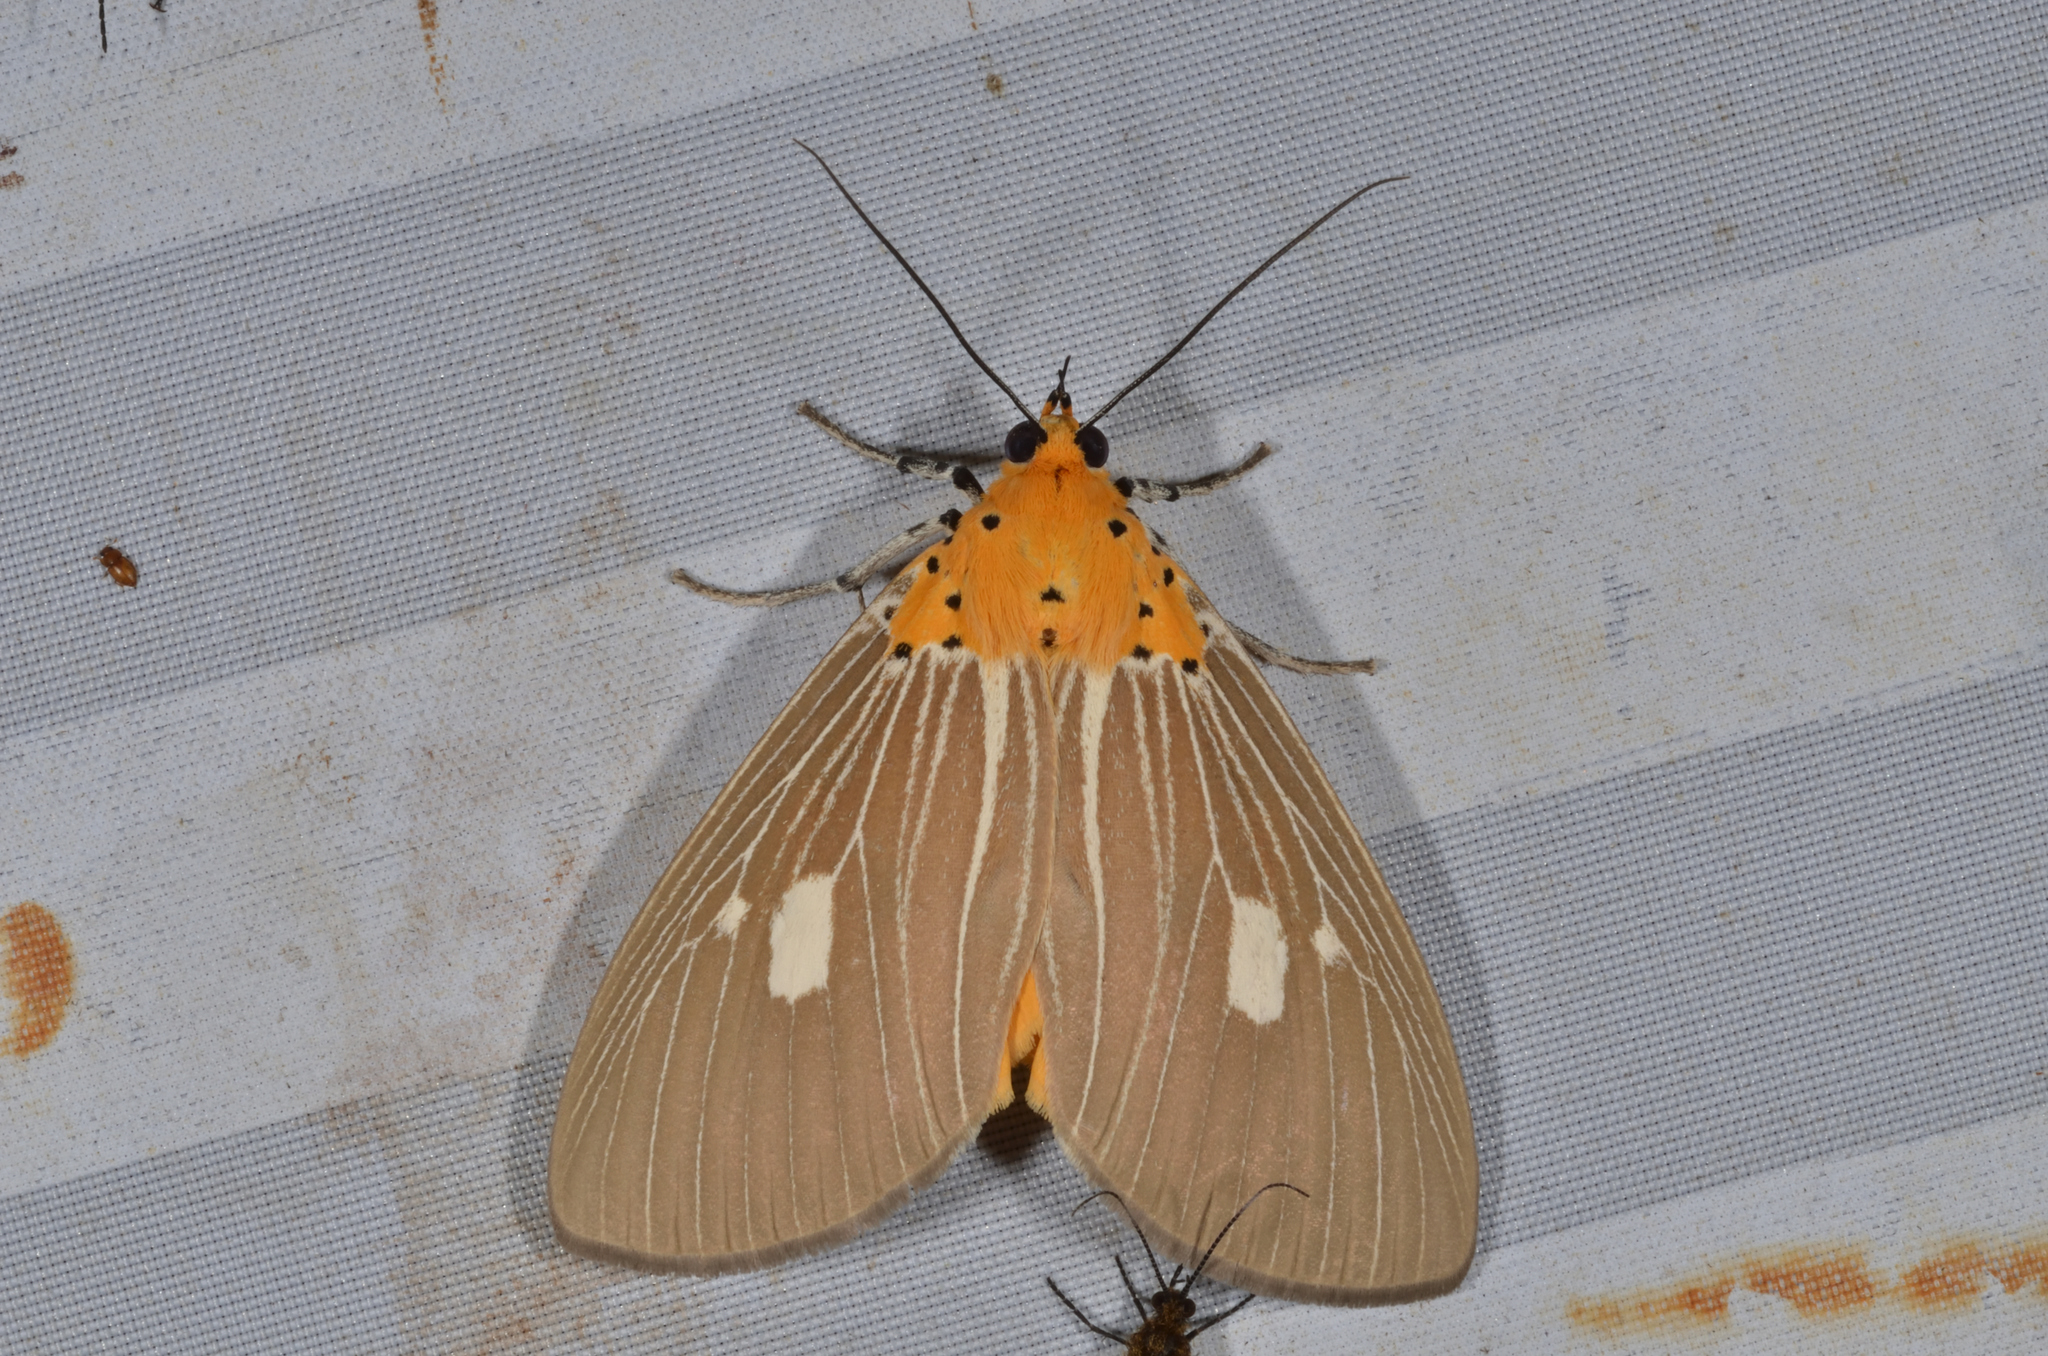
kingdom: Animalia
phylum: Arthropoda
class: Insecta
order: Lepidoptera
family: Erebidae
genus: Asota
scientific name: Asota plaginota
